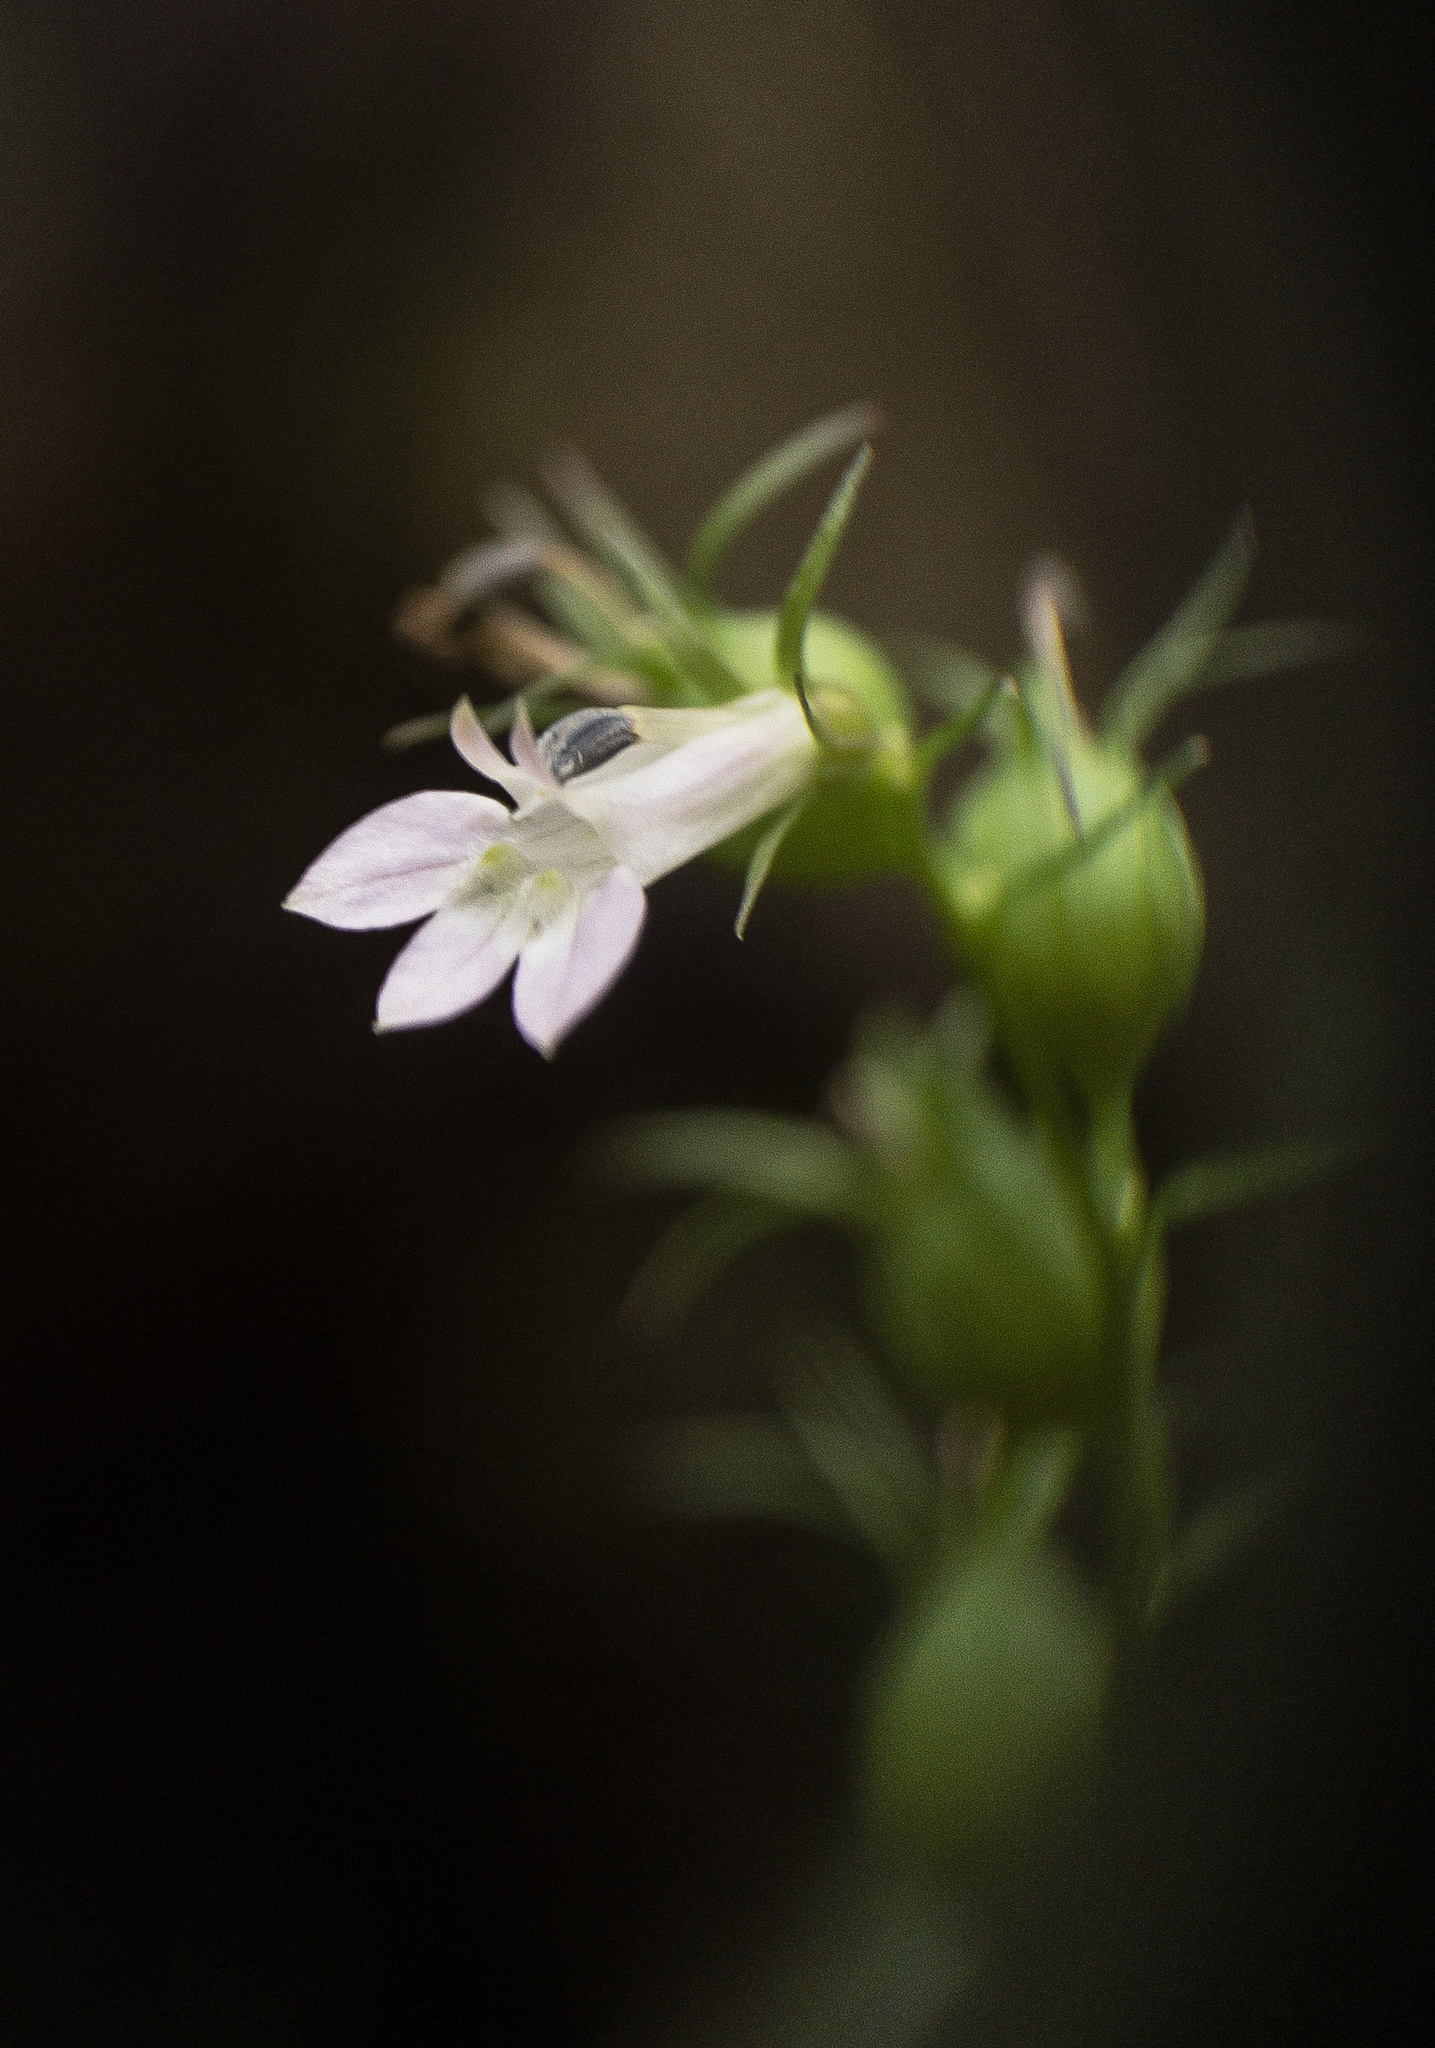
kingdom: Plantae
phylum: Tracheophyta
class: Magnoliopsida
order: Asterales
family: Campanulaceae
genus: Lobelia
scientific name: Lobelia inflata
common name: Indian tobacco
